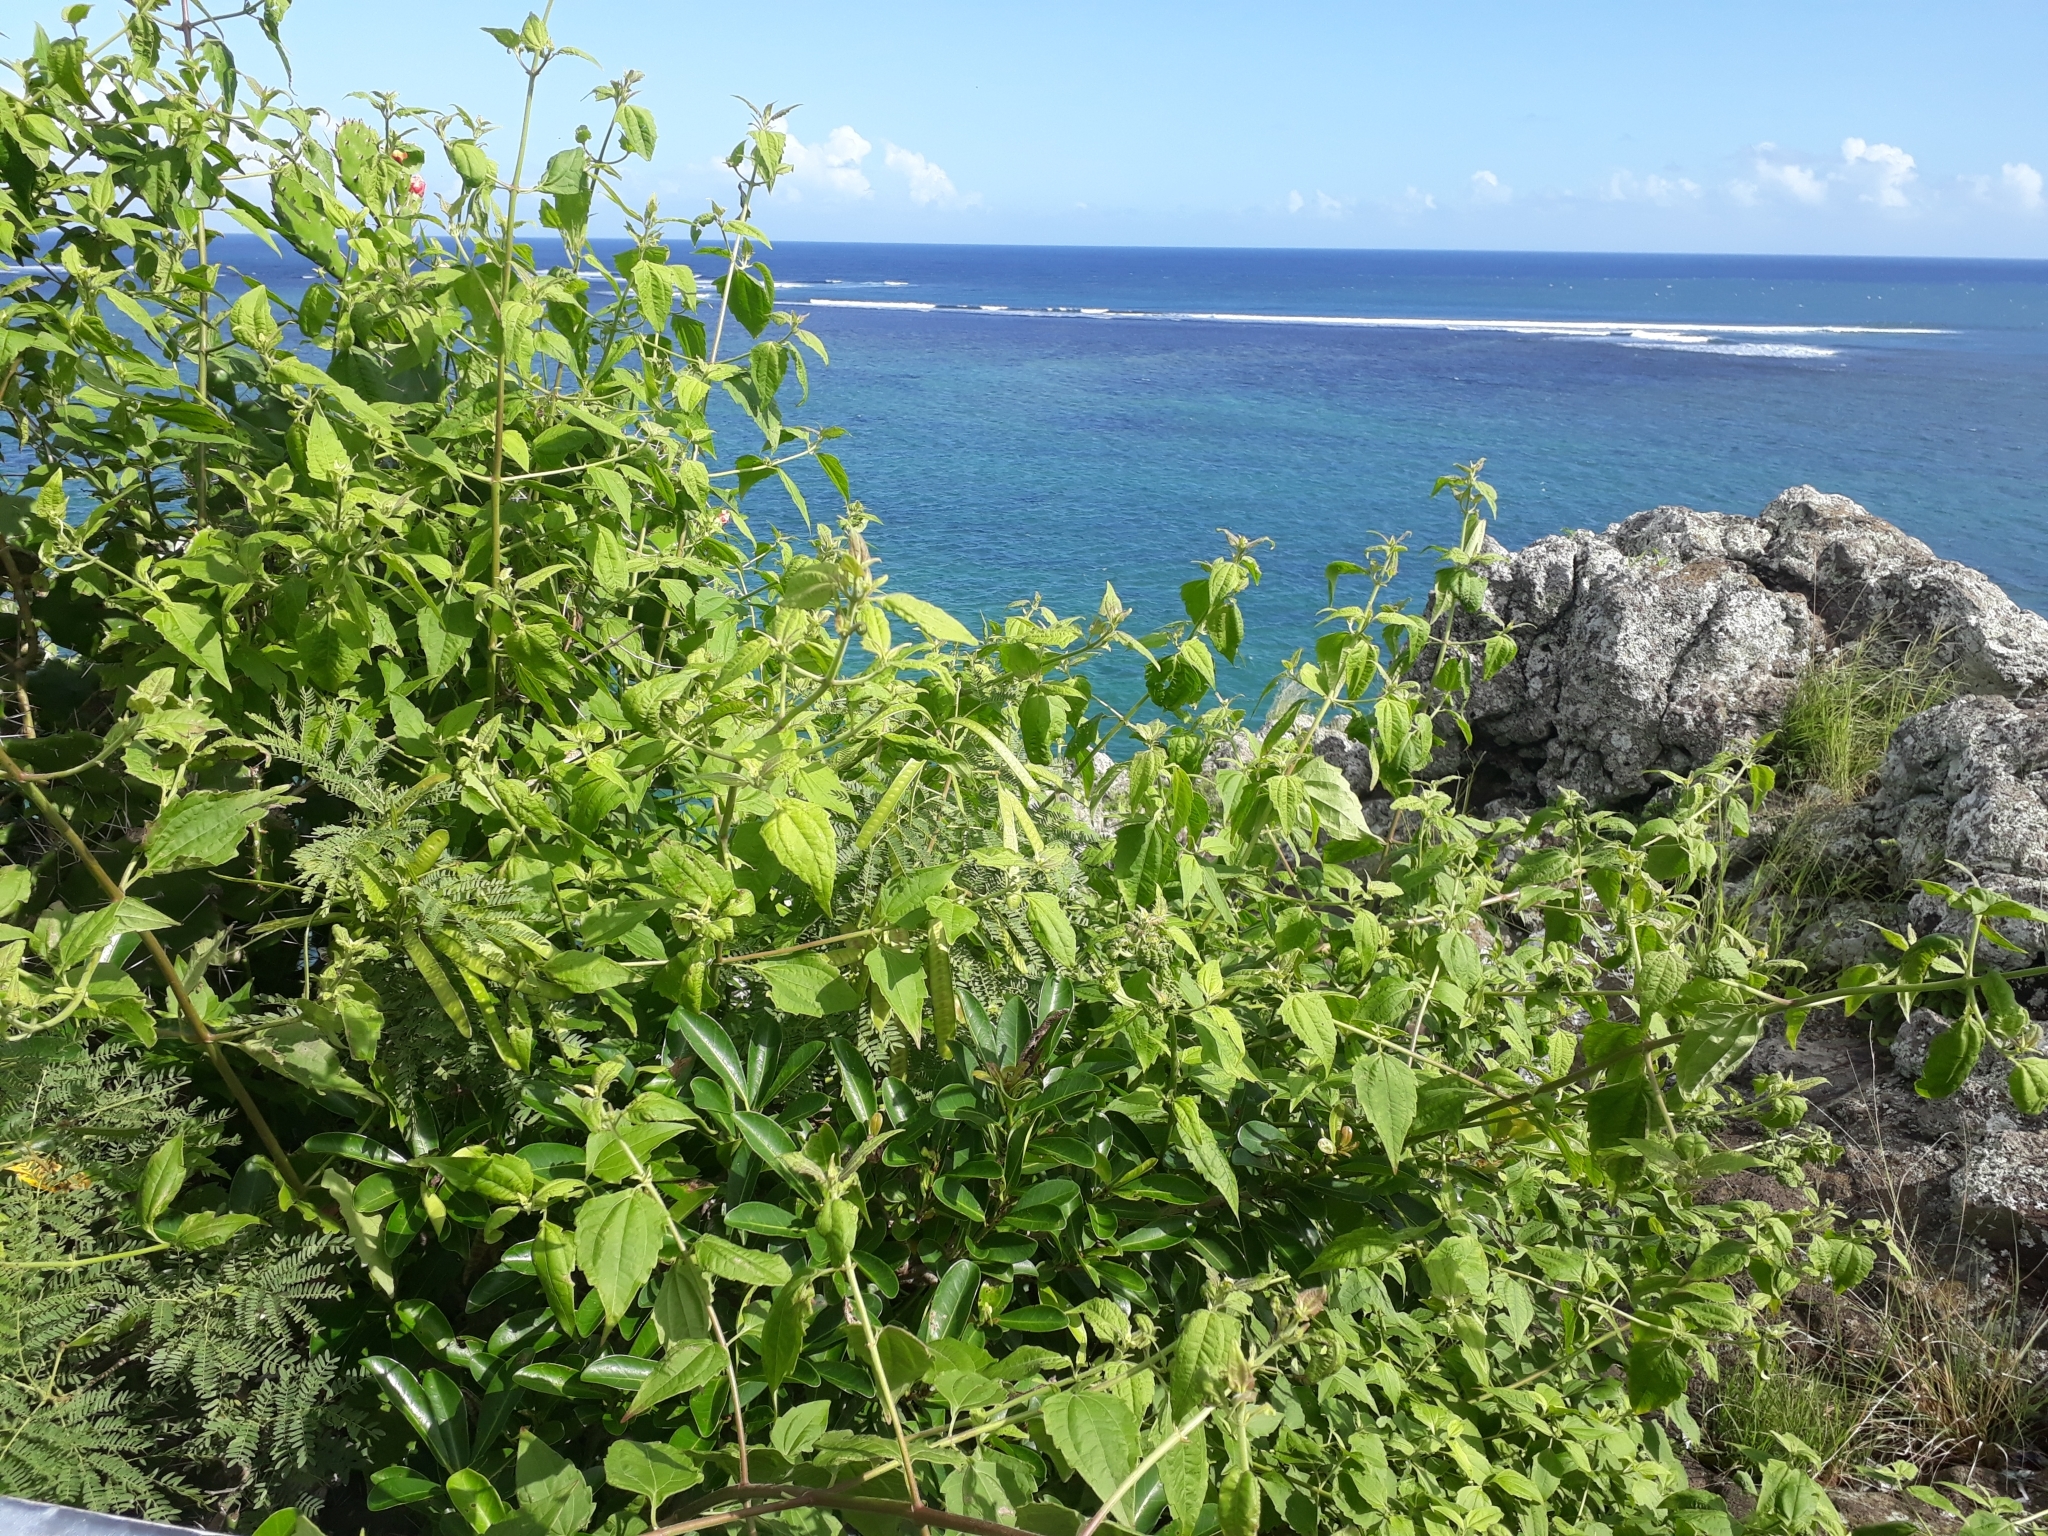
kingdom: Plantae
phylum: Tracheophyta
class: Magnoliopsida
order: Asterales
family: Asteraceae
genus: Chromolaena
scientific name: Chromolaena odorata
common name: Siamweed
